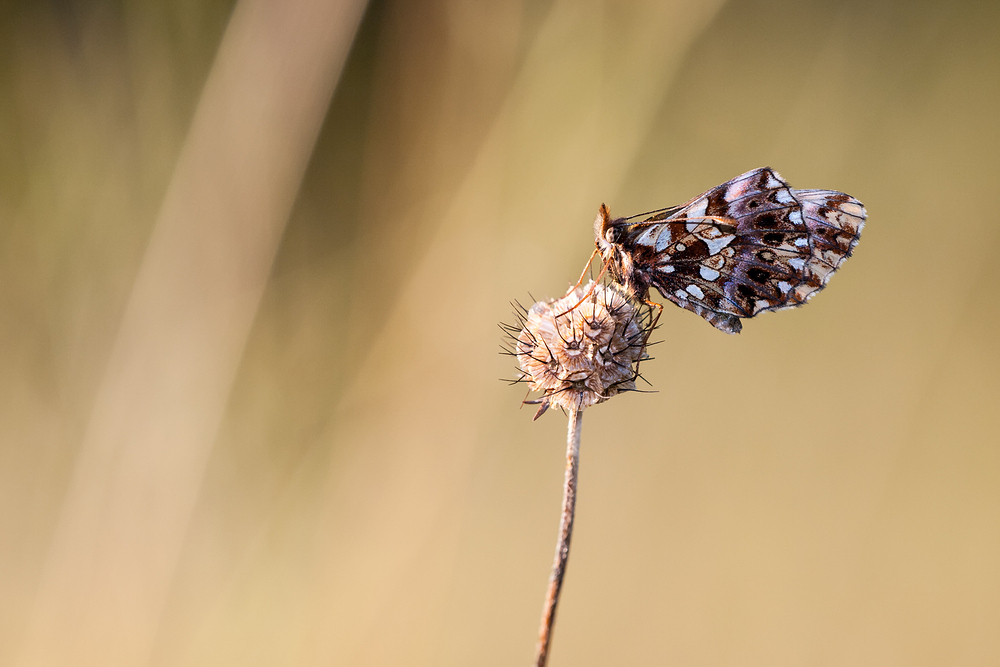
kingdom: Animalia
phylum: Arthropoda
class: Insecta
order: Lepidoptera
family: Nymphalidae
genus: Boloria
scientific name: Boloria dia
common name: Weaver's fritillary
